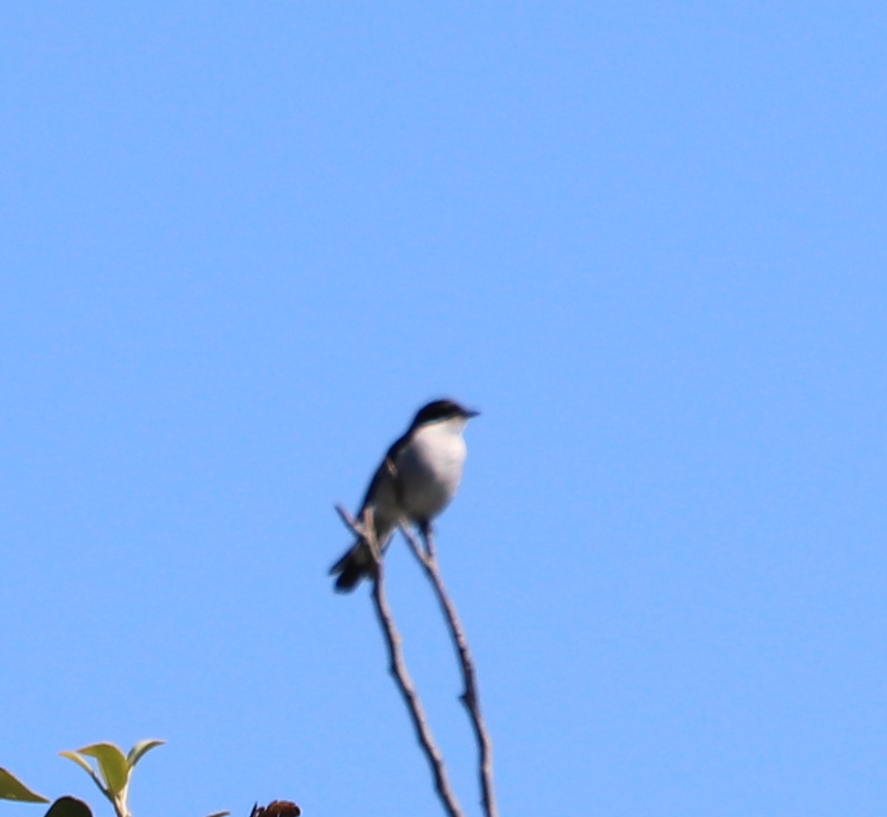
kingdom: Animalia
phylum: Chordata
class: Aves
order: Passeriformes
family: Muscicapidae
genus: Sigelus
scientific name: Sigelus silens
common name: Fiscal flycatcher
